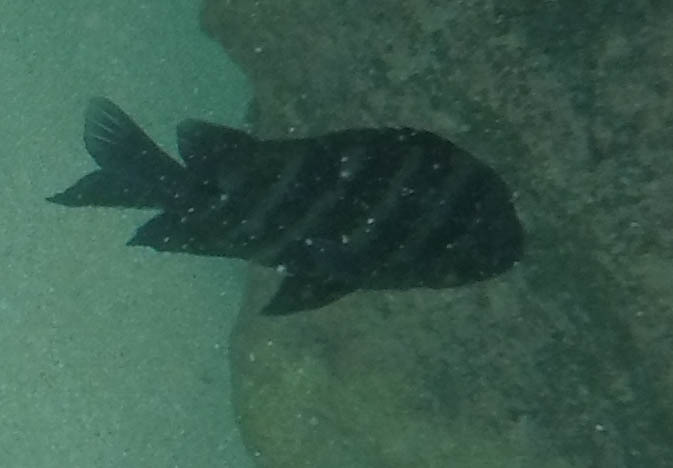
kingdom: Animalia
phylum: Chordata
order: Perciformes
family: Pomacentridae
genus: Abudefduf
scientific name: Abudefduf sordidus
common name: Blackspot sergeant
